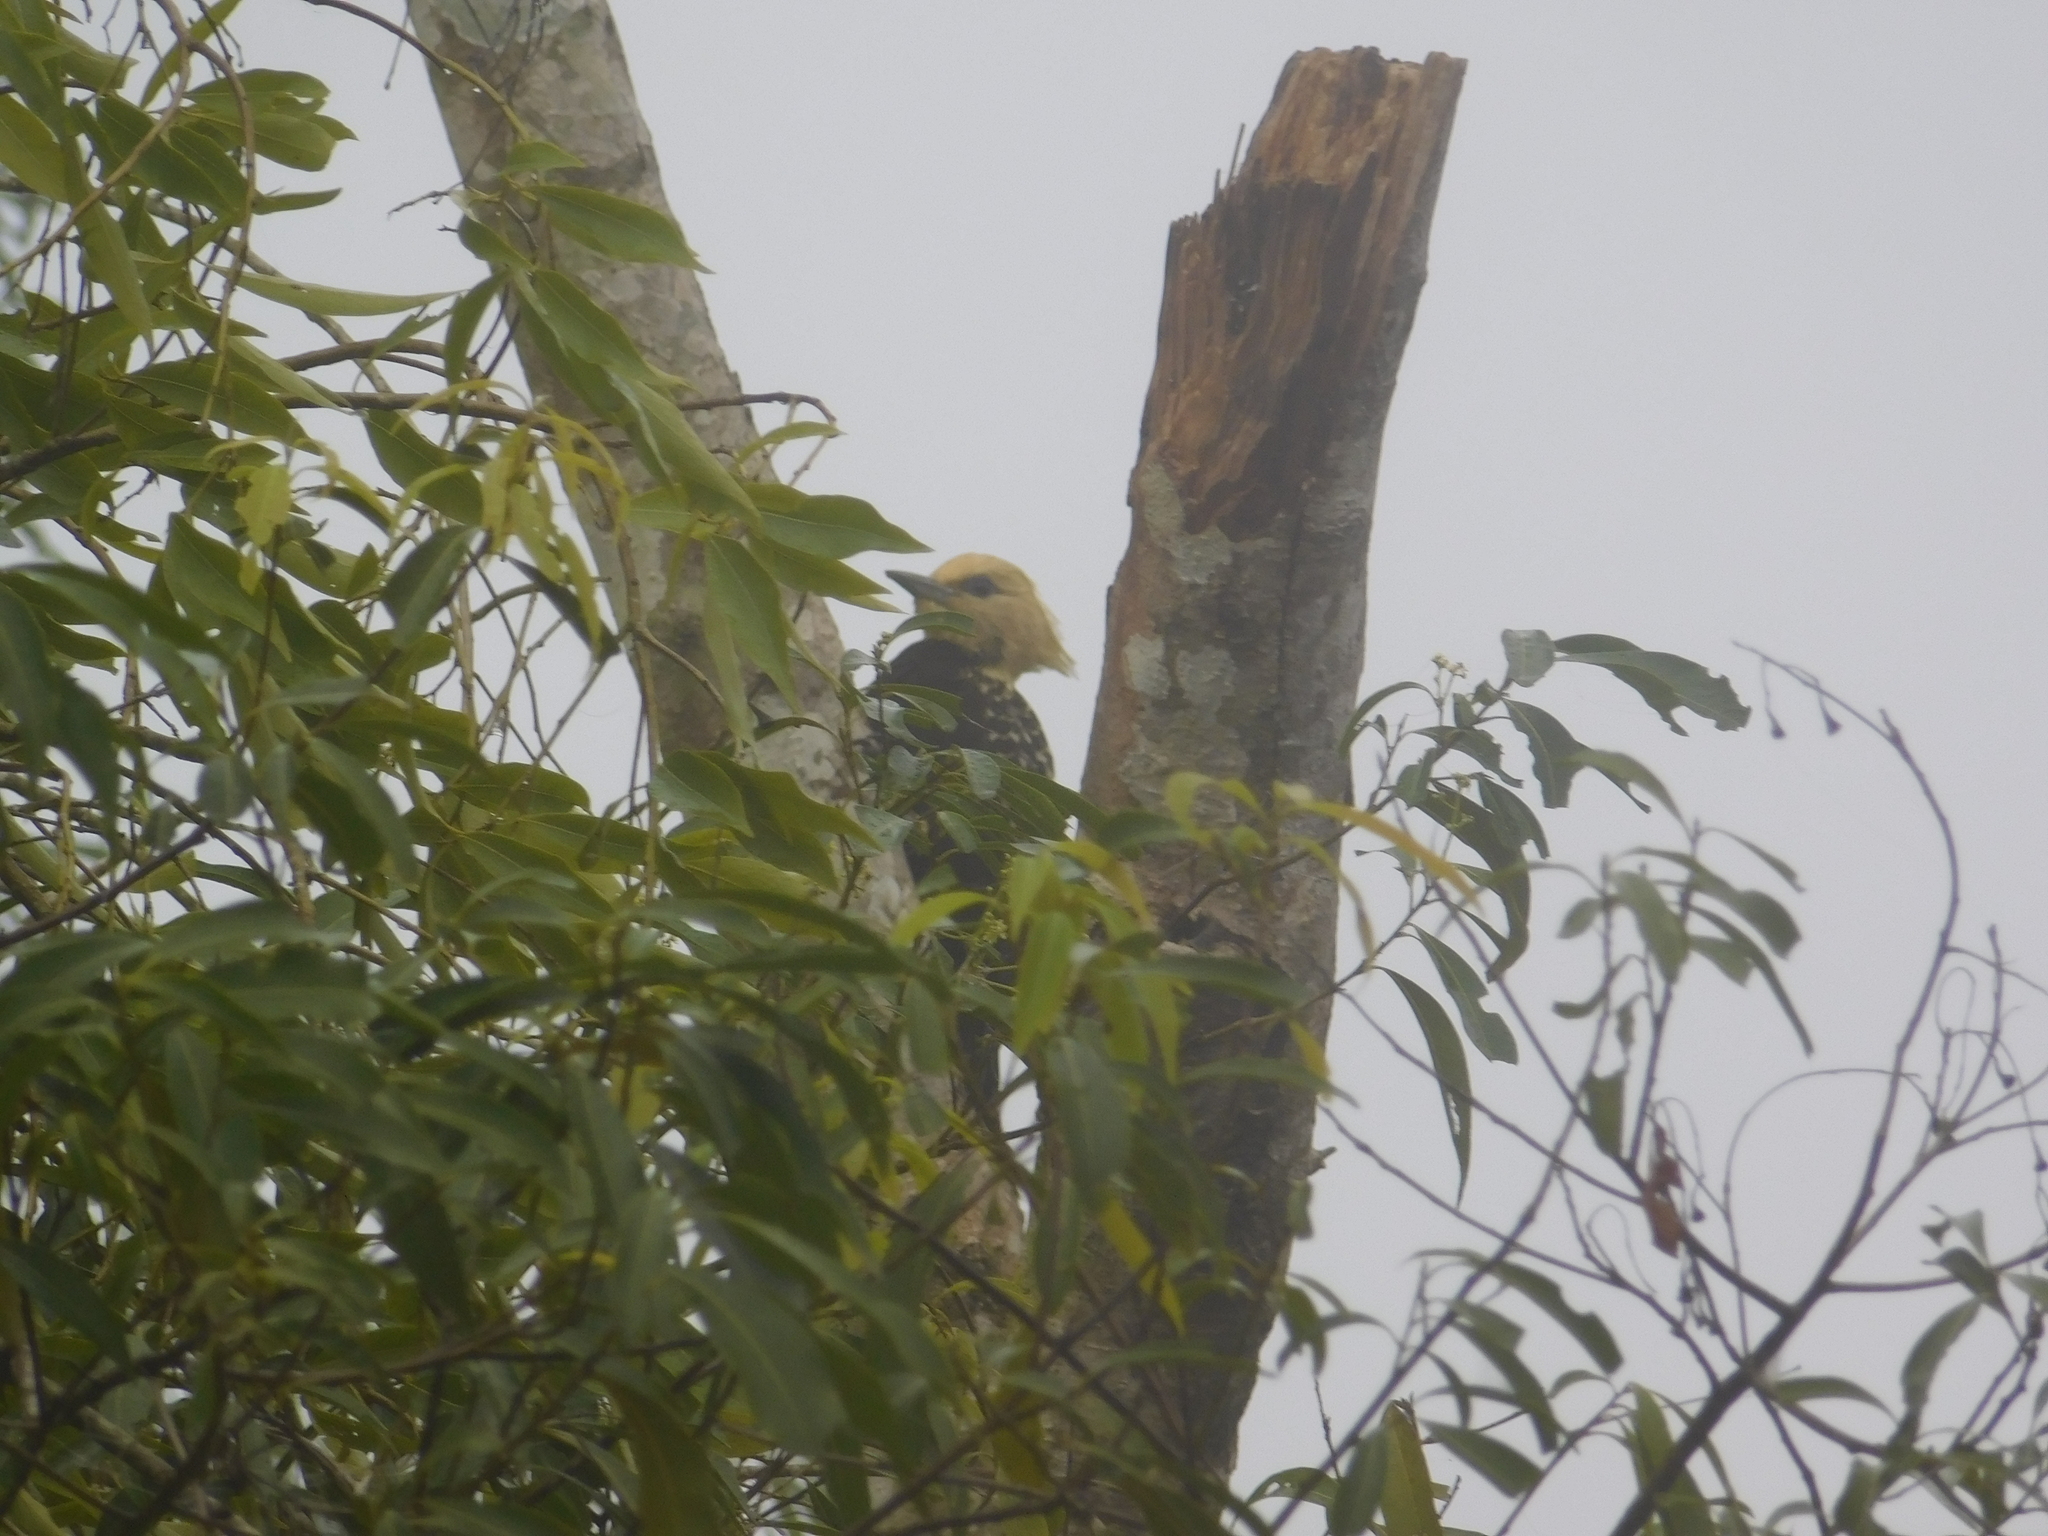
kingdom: Animalia
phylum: Chordata
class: Aves
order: Piciformes
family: Picidae
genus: Celeus
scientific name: Celeus flavescens
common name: Blond-crested woodpecker
